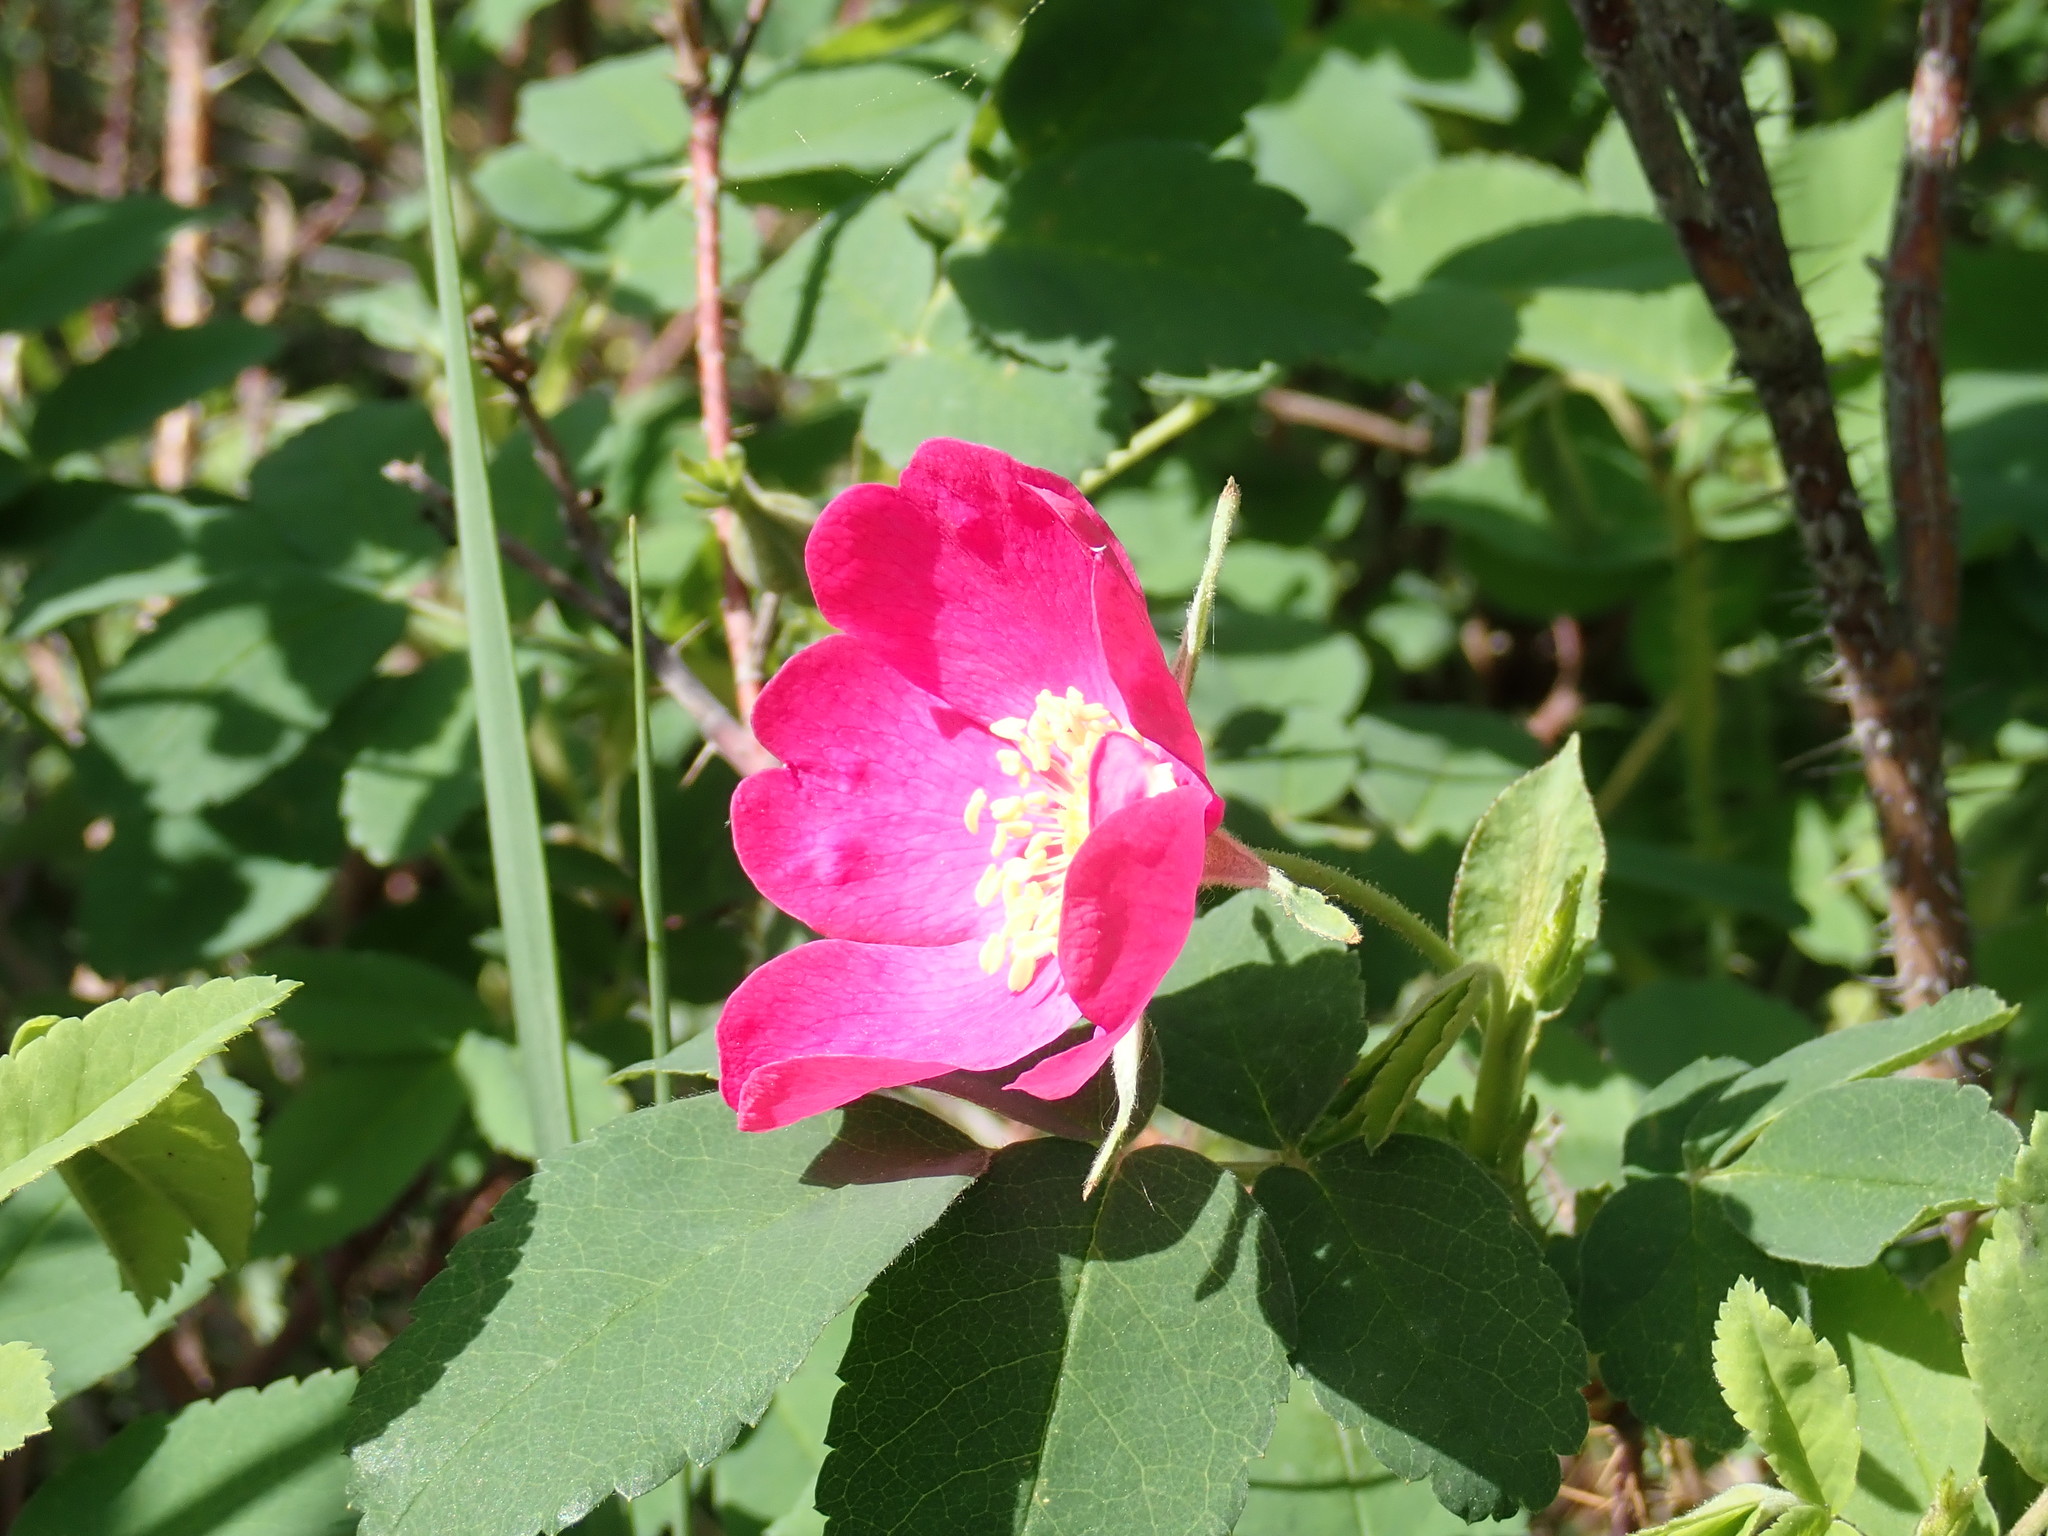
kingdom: Plantae
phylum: Tracheophyta
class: Magnoliopsida
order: Rosales
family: Rosaceae
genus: Rosa
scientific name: Rosa acicularis
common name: Prickly rose
